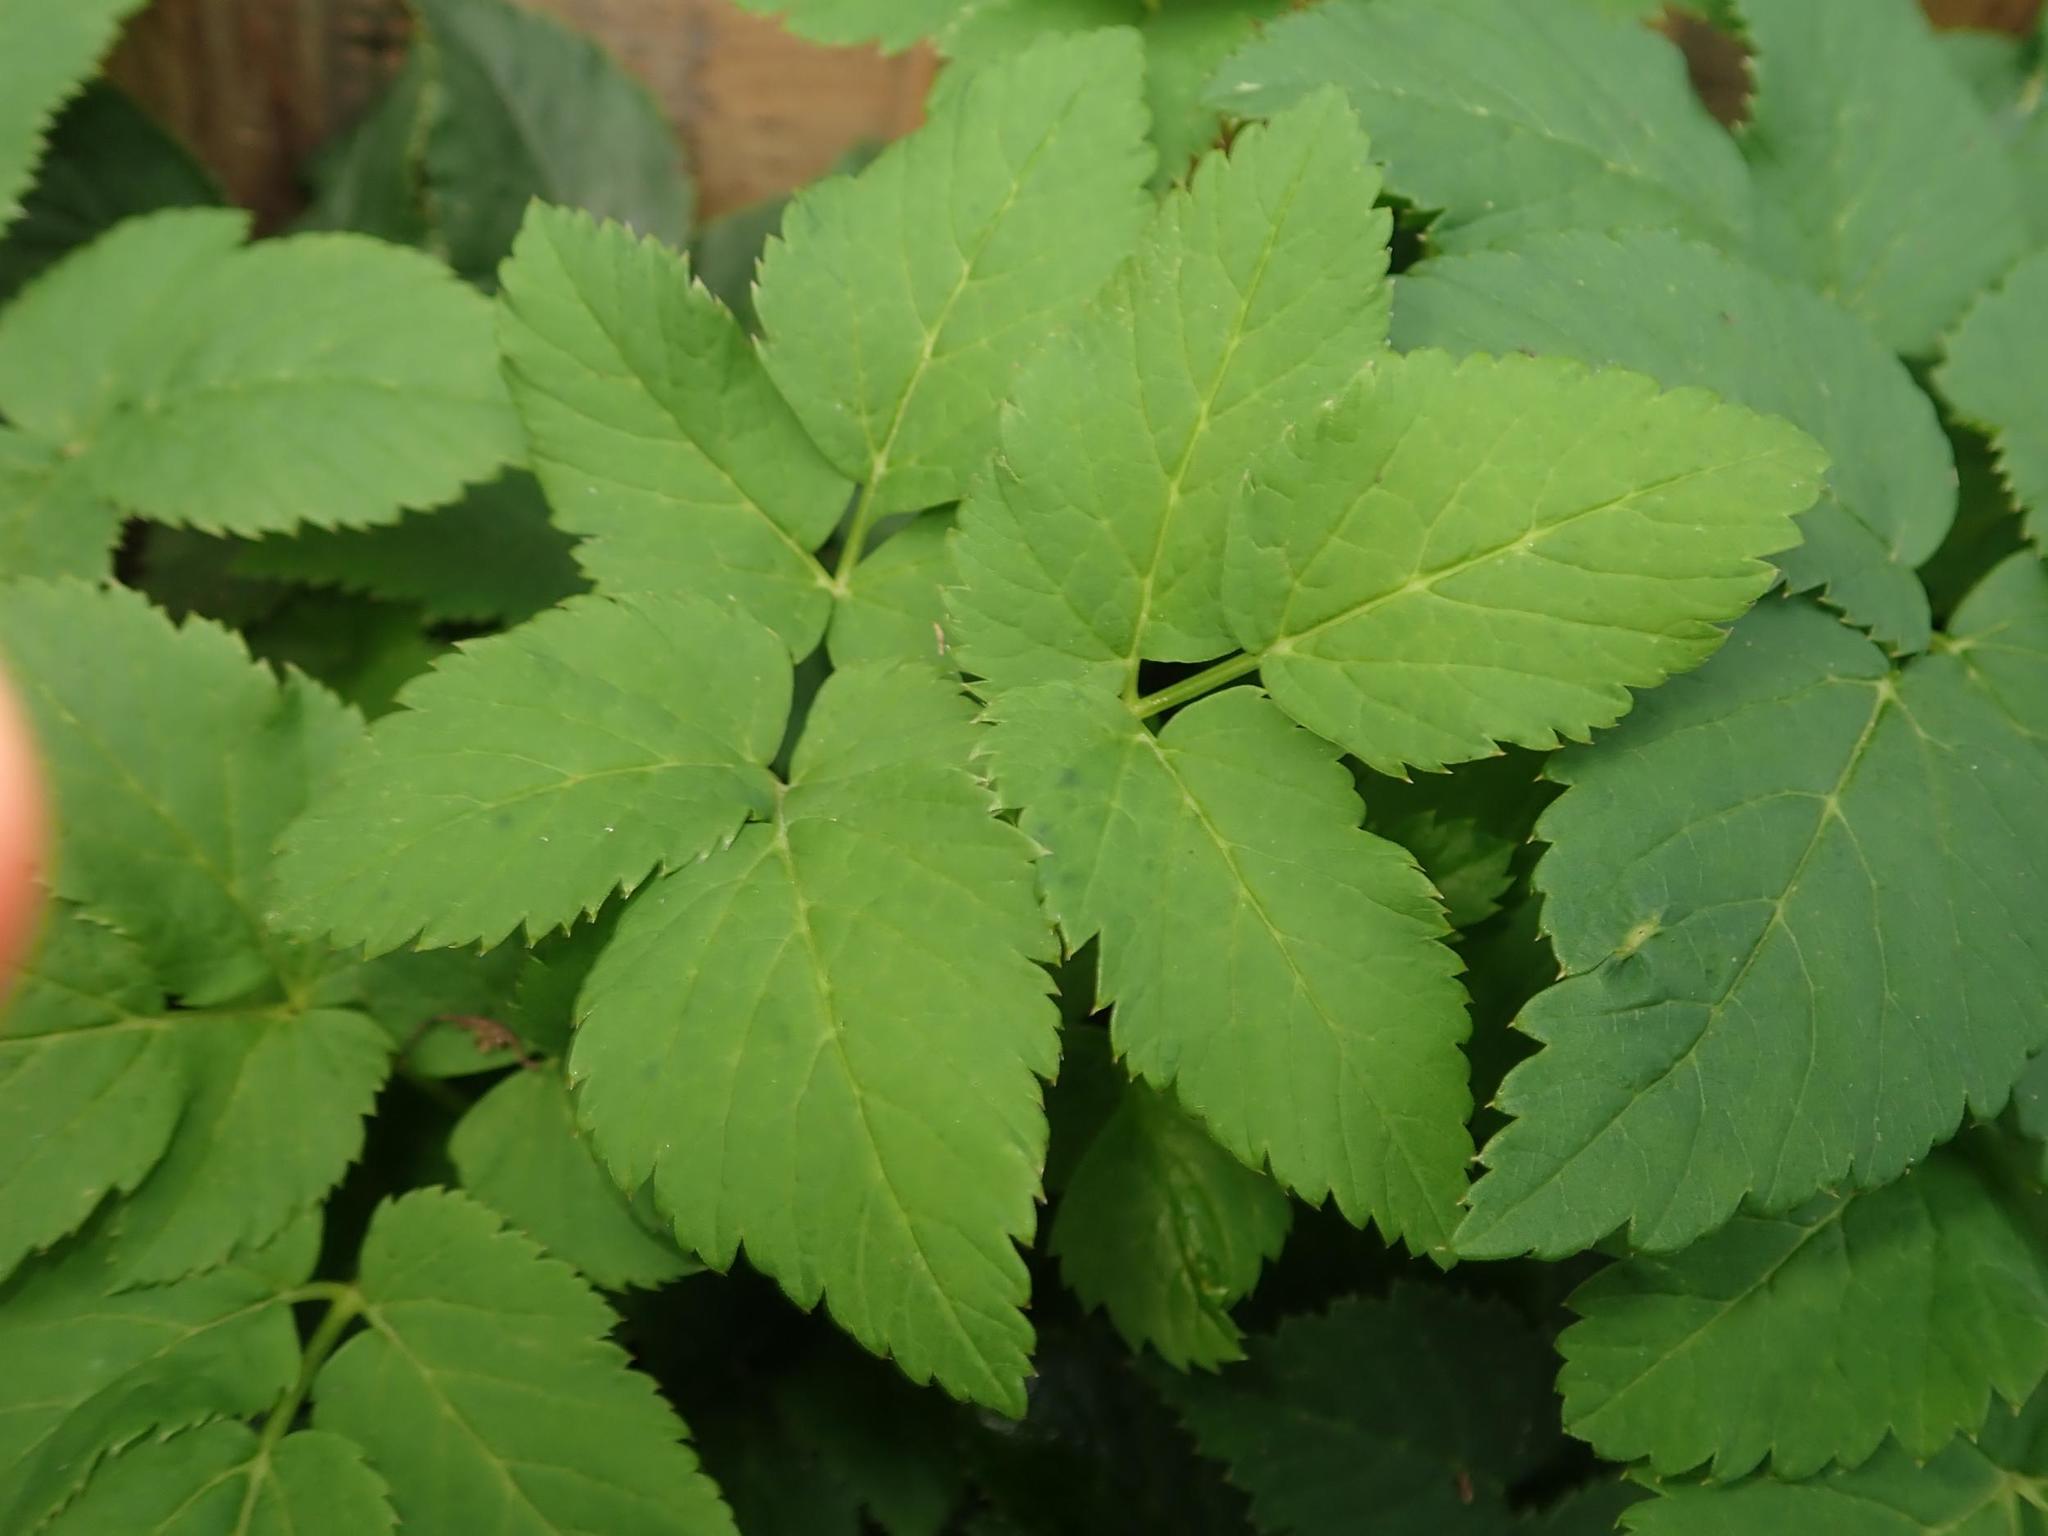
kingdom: Plantae
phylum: Tracheophyta
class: Magnoliopsida
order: Apiales
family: Apiaceae
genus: Aegopodium
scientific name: Aegopodium podagraria
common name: Ground-elder
